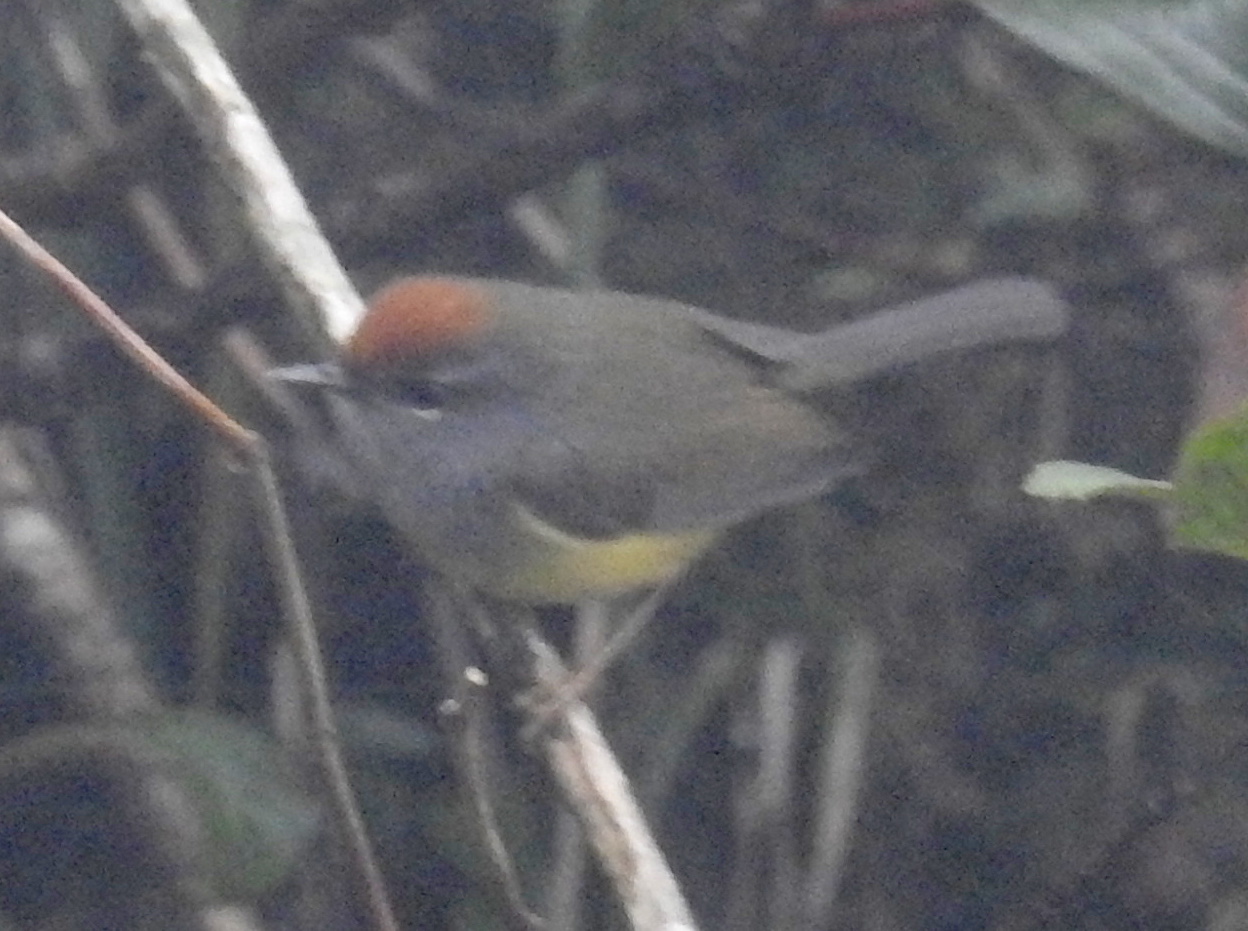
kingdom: Animalia
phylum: Chordata
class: Aves
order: Passeriformes
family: Cettiidae
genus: Tickellia
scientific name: Tickellia hodgsoni
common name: Broad-billed warbler
